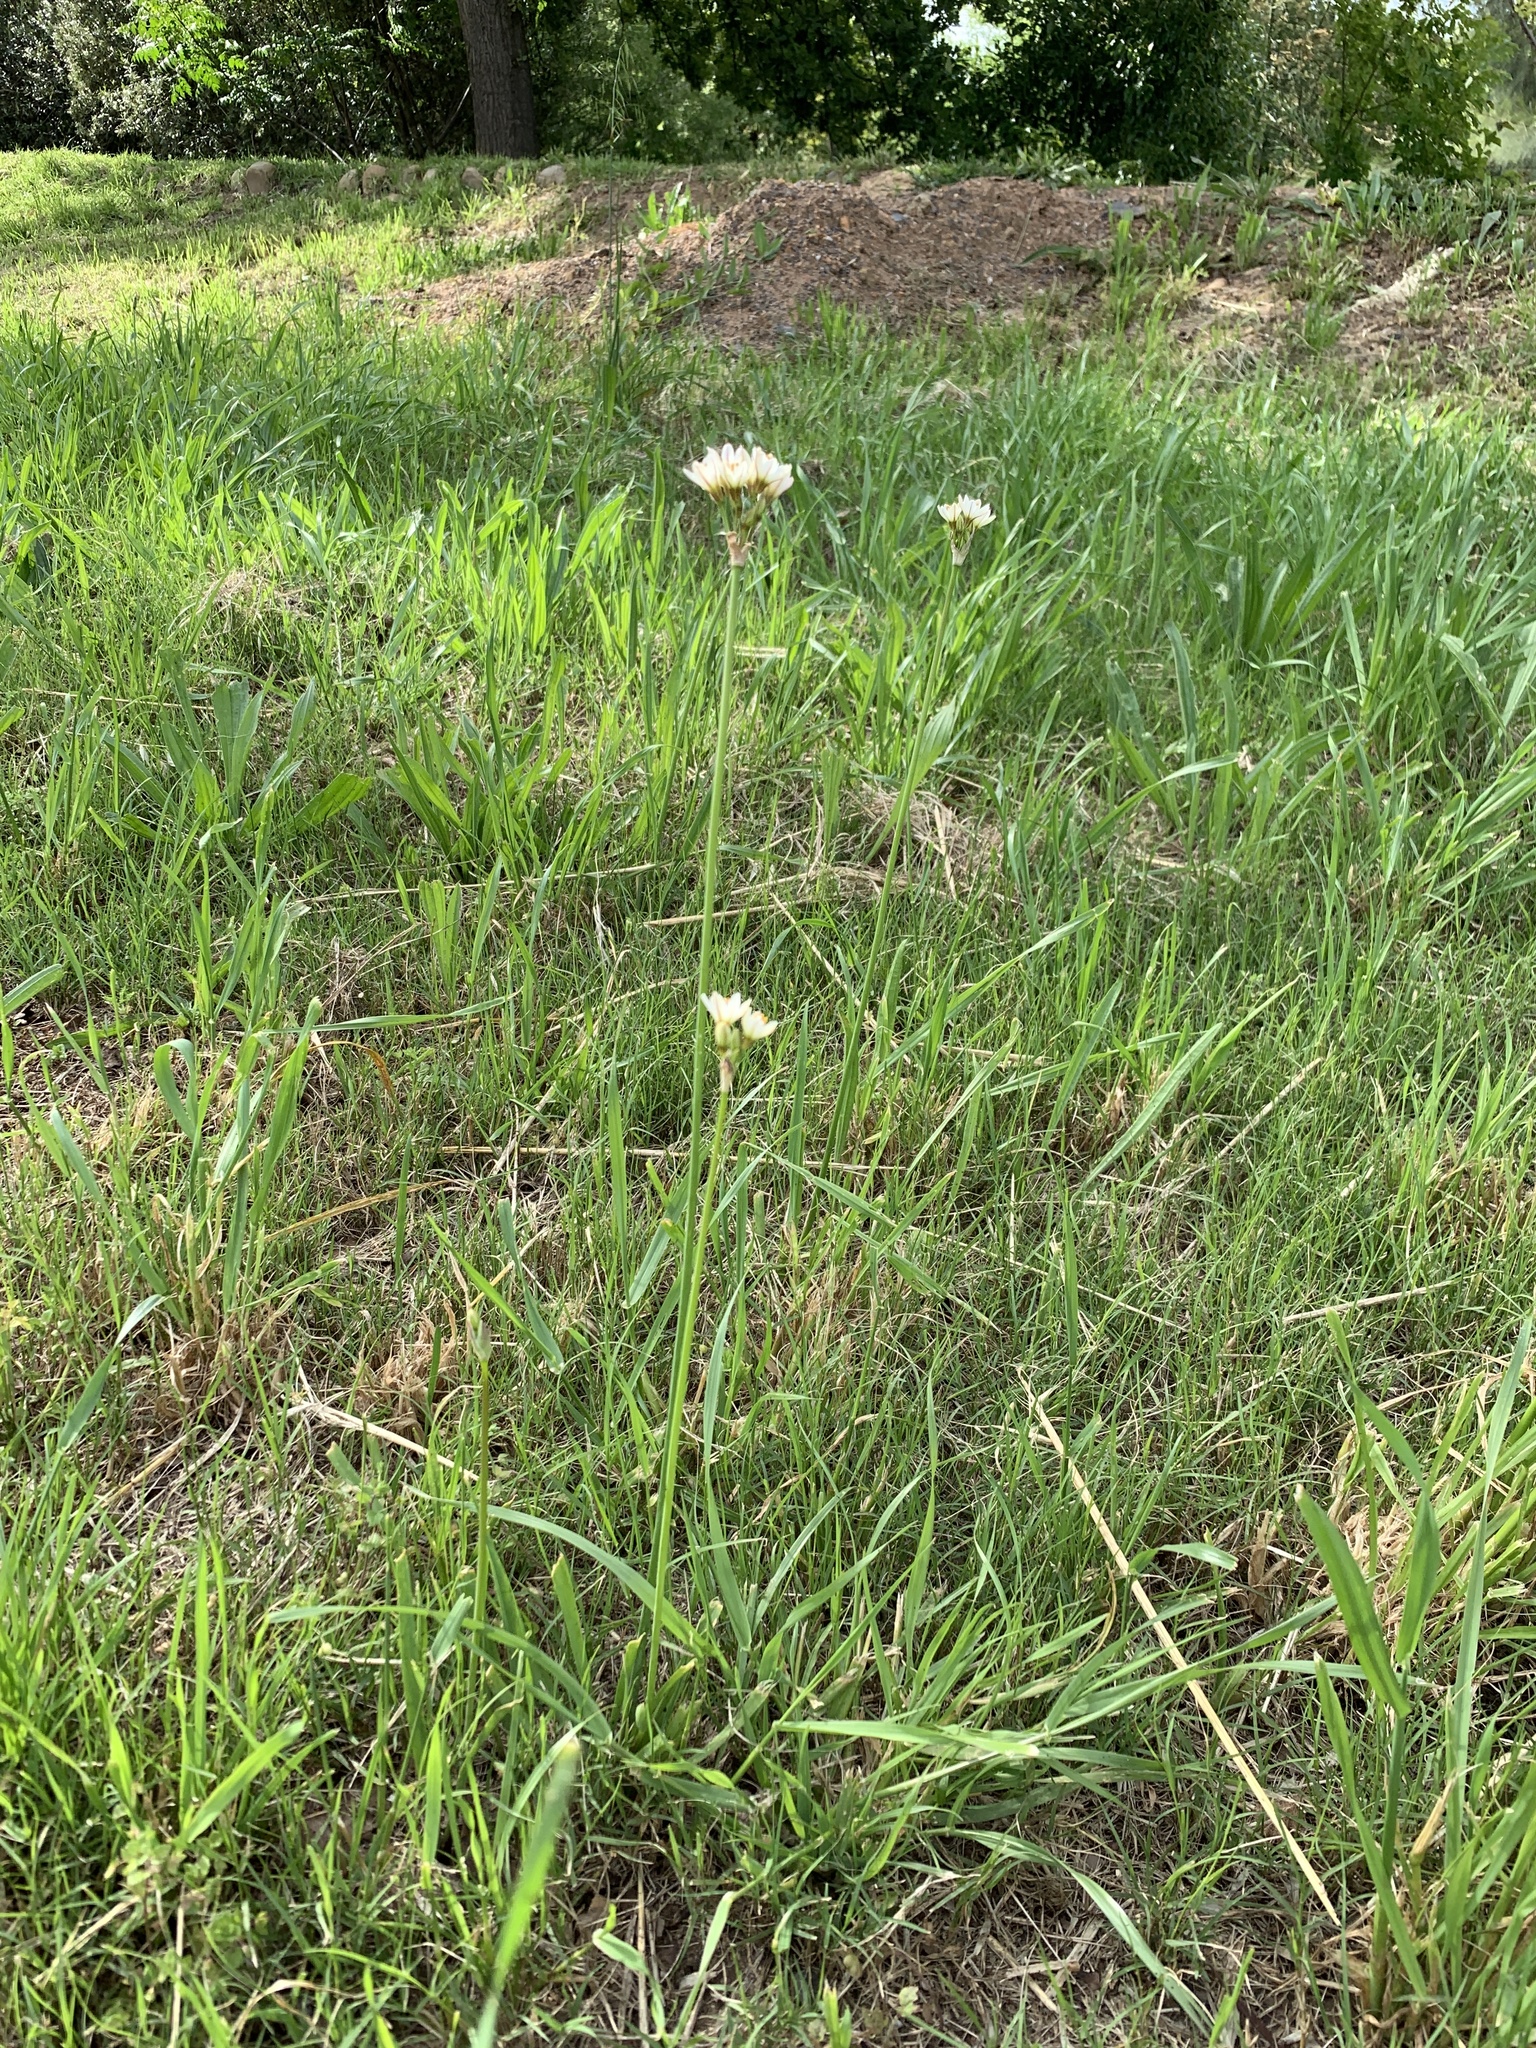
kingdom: Plantae
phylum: Tracheophyta
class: Liliopsida
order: Asparagales
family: Amaryllidaceae
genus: Nothoscordum
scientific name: Nothoscordum gracile
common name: Slender false garlic
